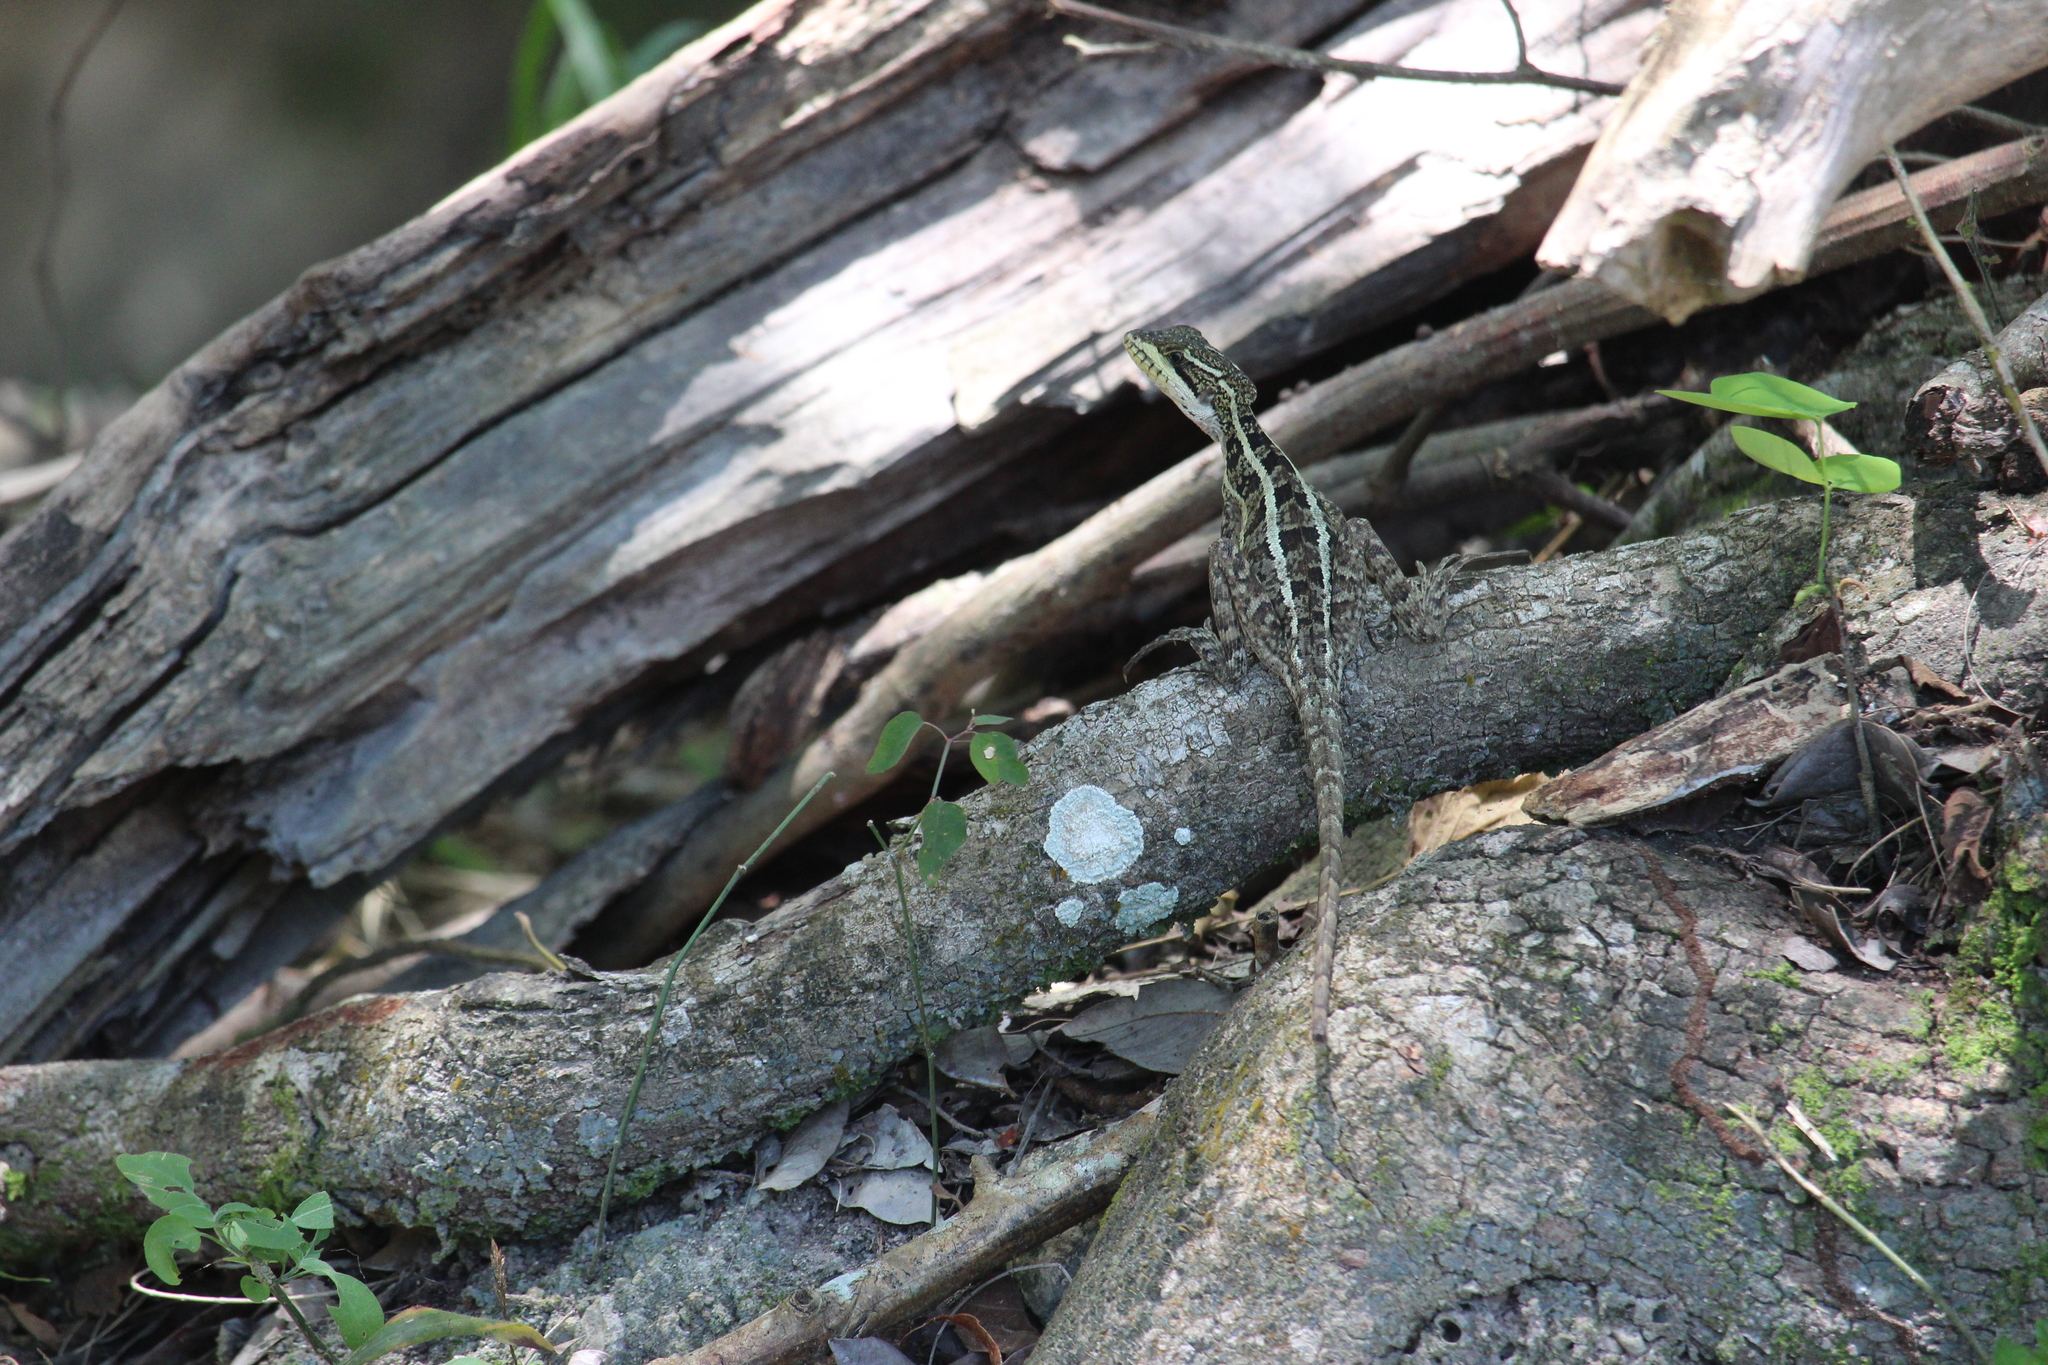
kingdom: Animalia
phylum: Chordata
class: Squamata
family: Corytophanidae
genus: Basiliscus
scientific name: Basiliscus vittatus
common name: Brown basilisk
